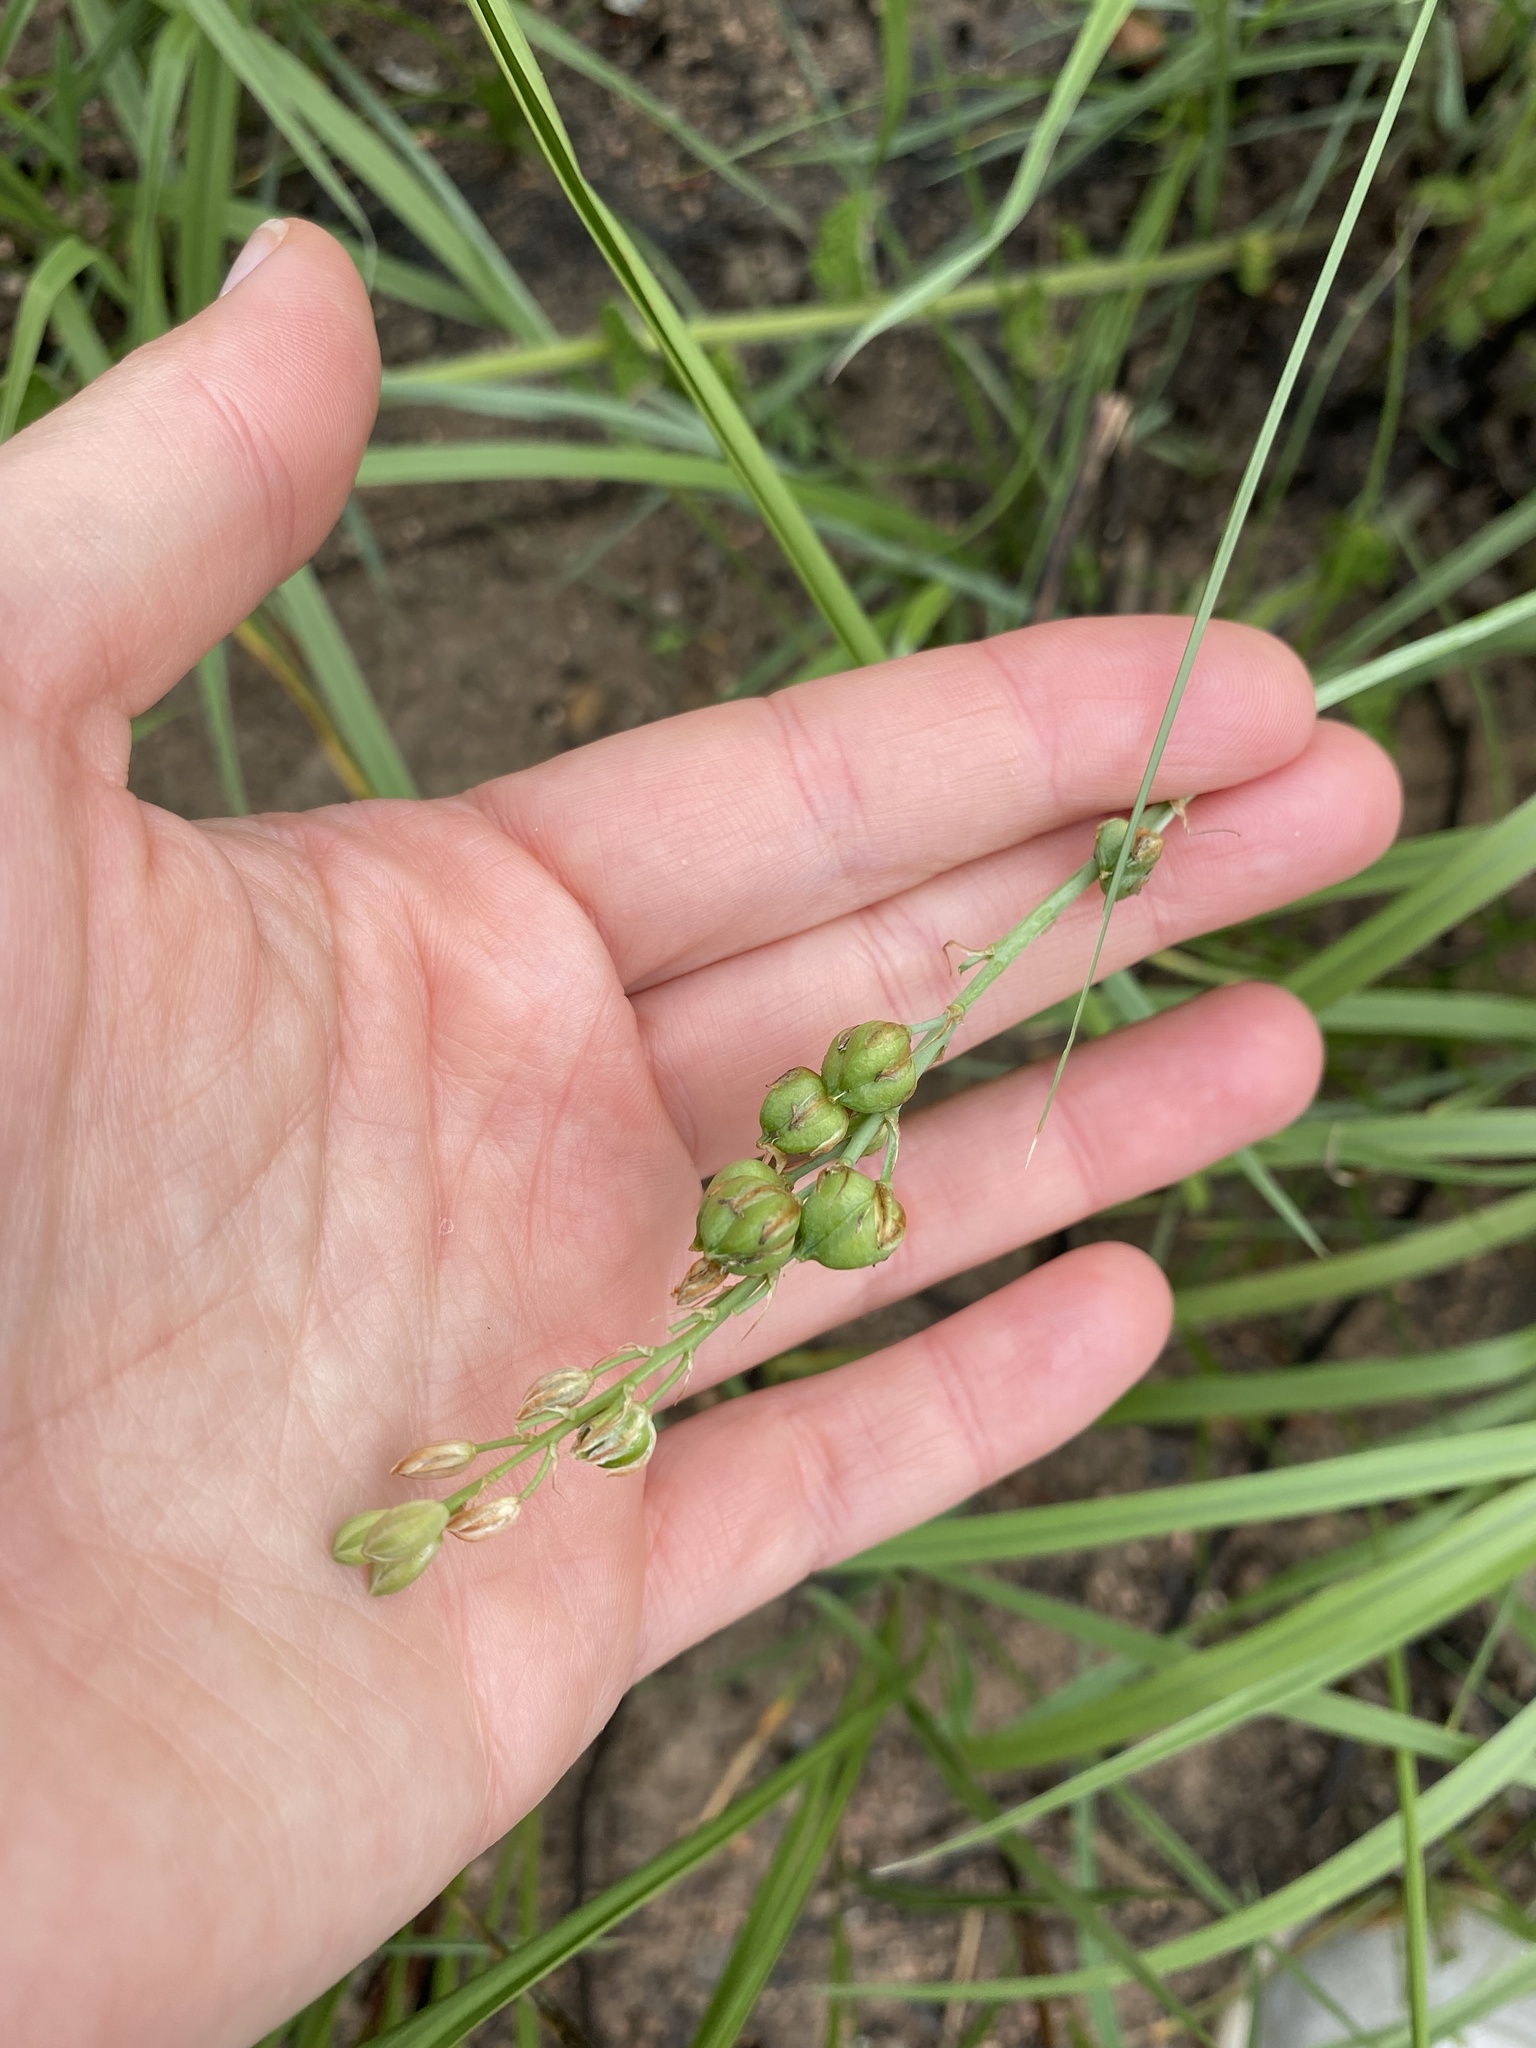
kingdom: Plantae
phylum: Tracheophyta
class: Liliopsida
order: Asparagales
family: Asparagaceae
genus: Chlorophytum
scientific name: Chlorophytum saundersiae
